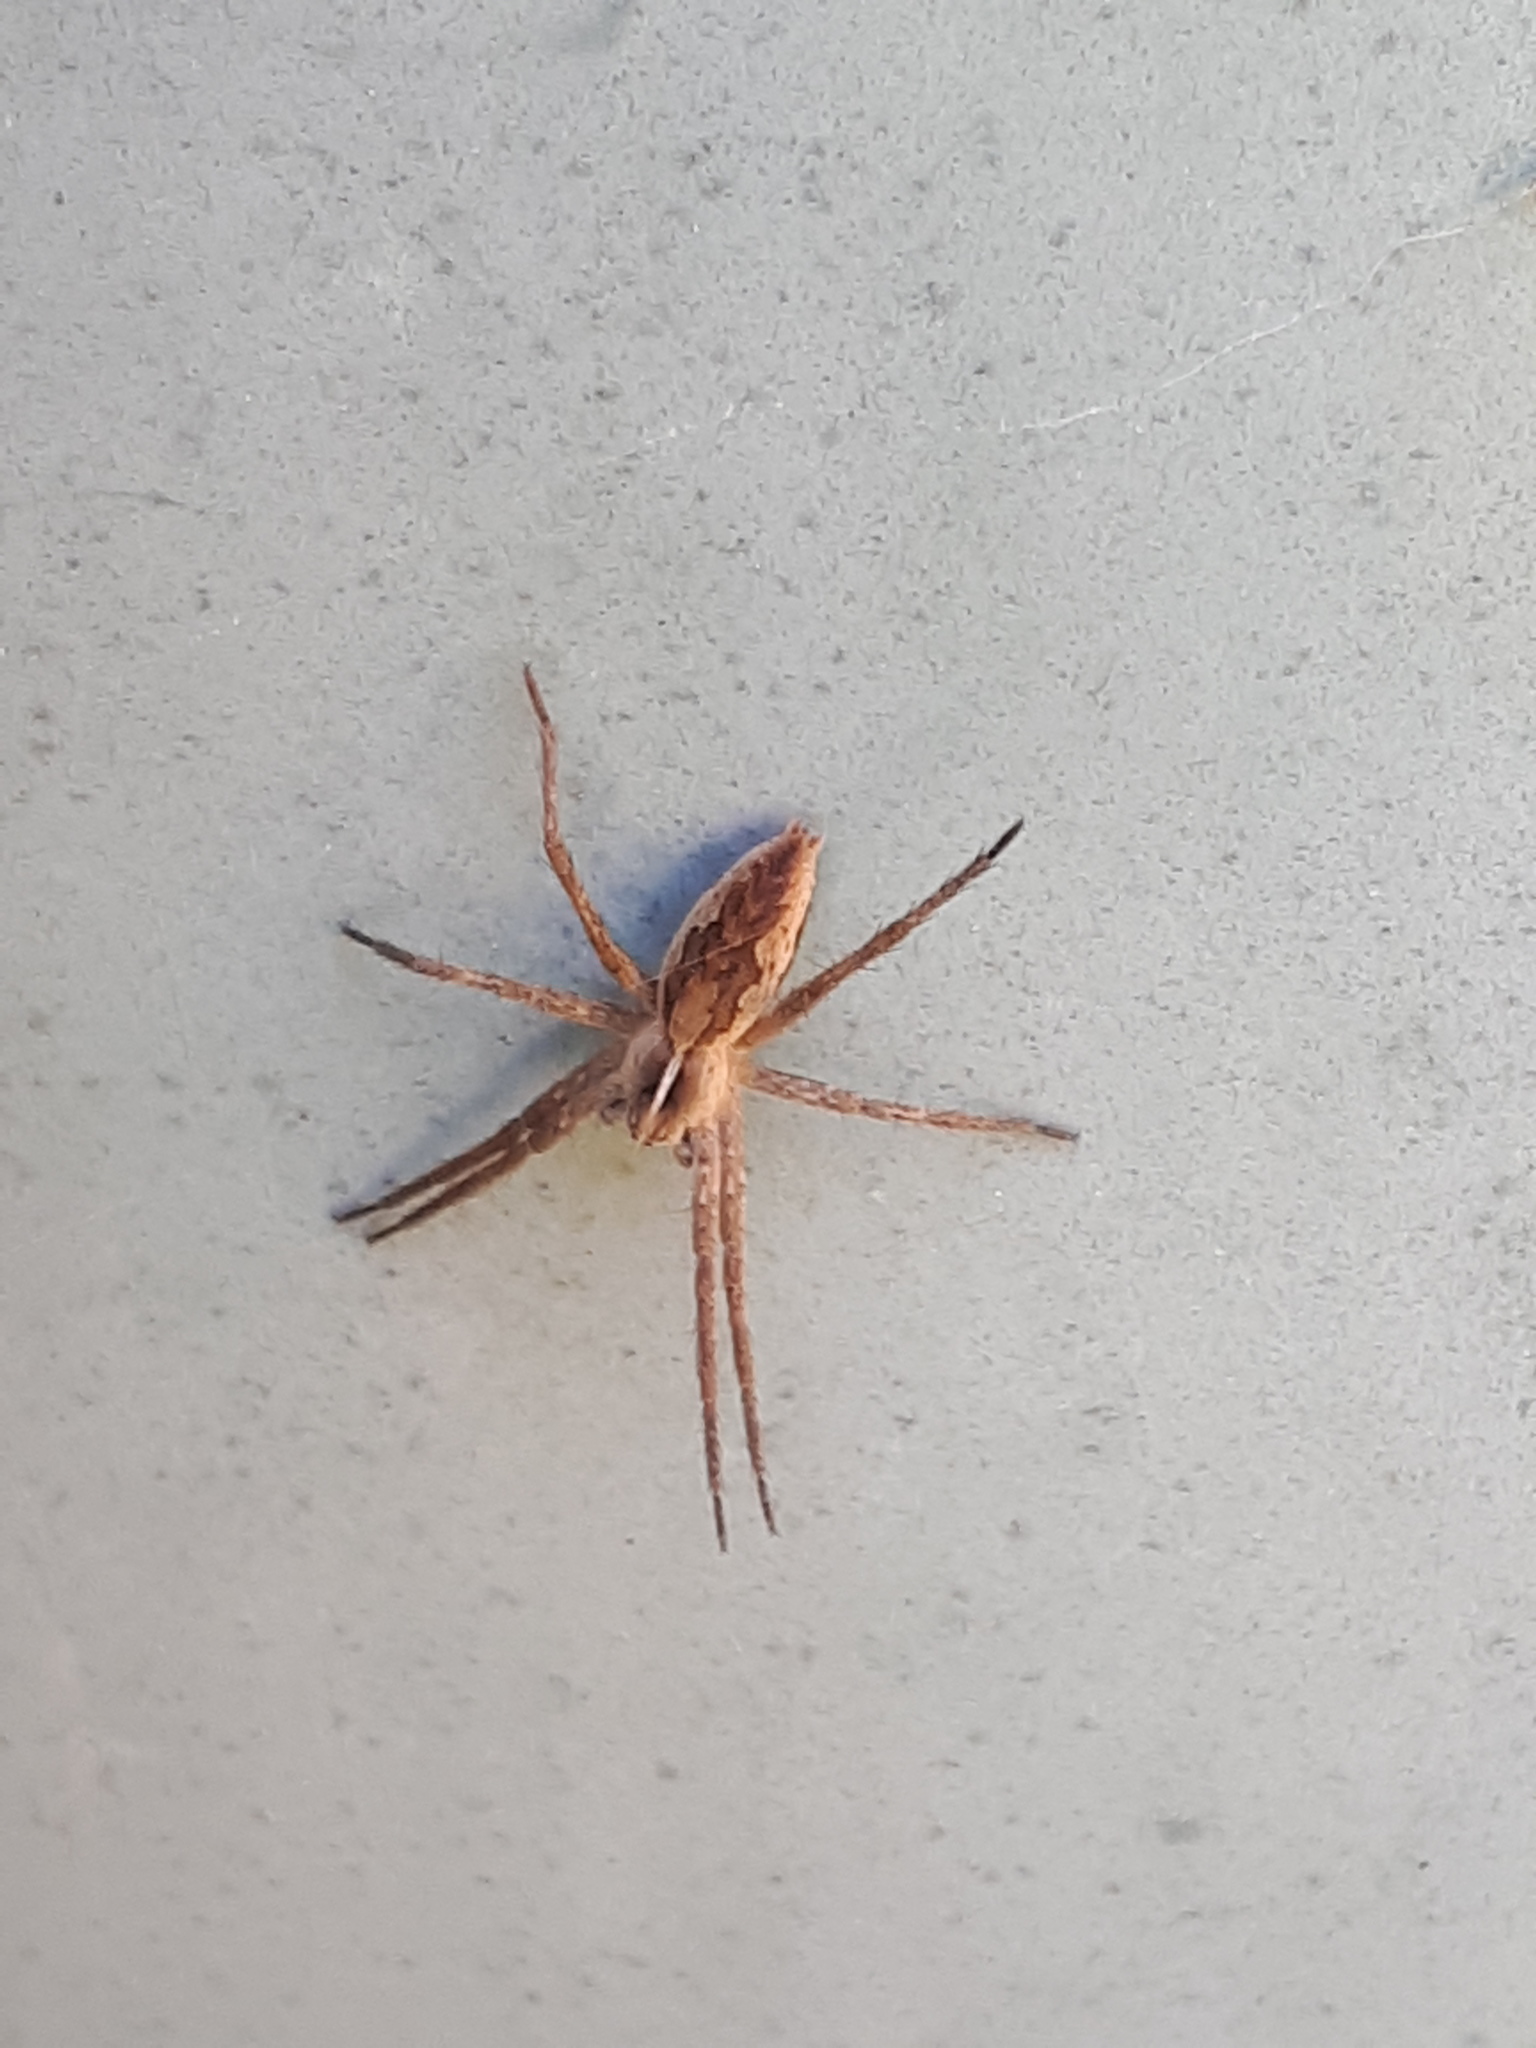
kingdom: Animalia
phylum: Arthropoda
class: Arachnida
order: Araneae
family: Pisauridae
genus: Pisaura
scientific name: Pisaura mirabilis
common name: Tent spider
